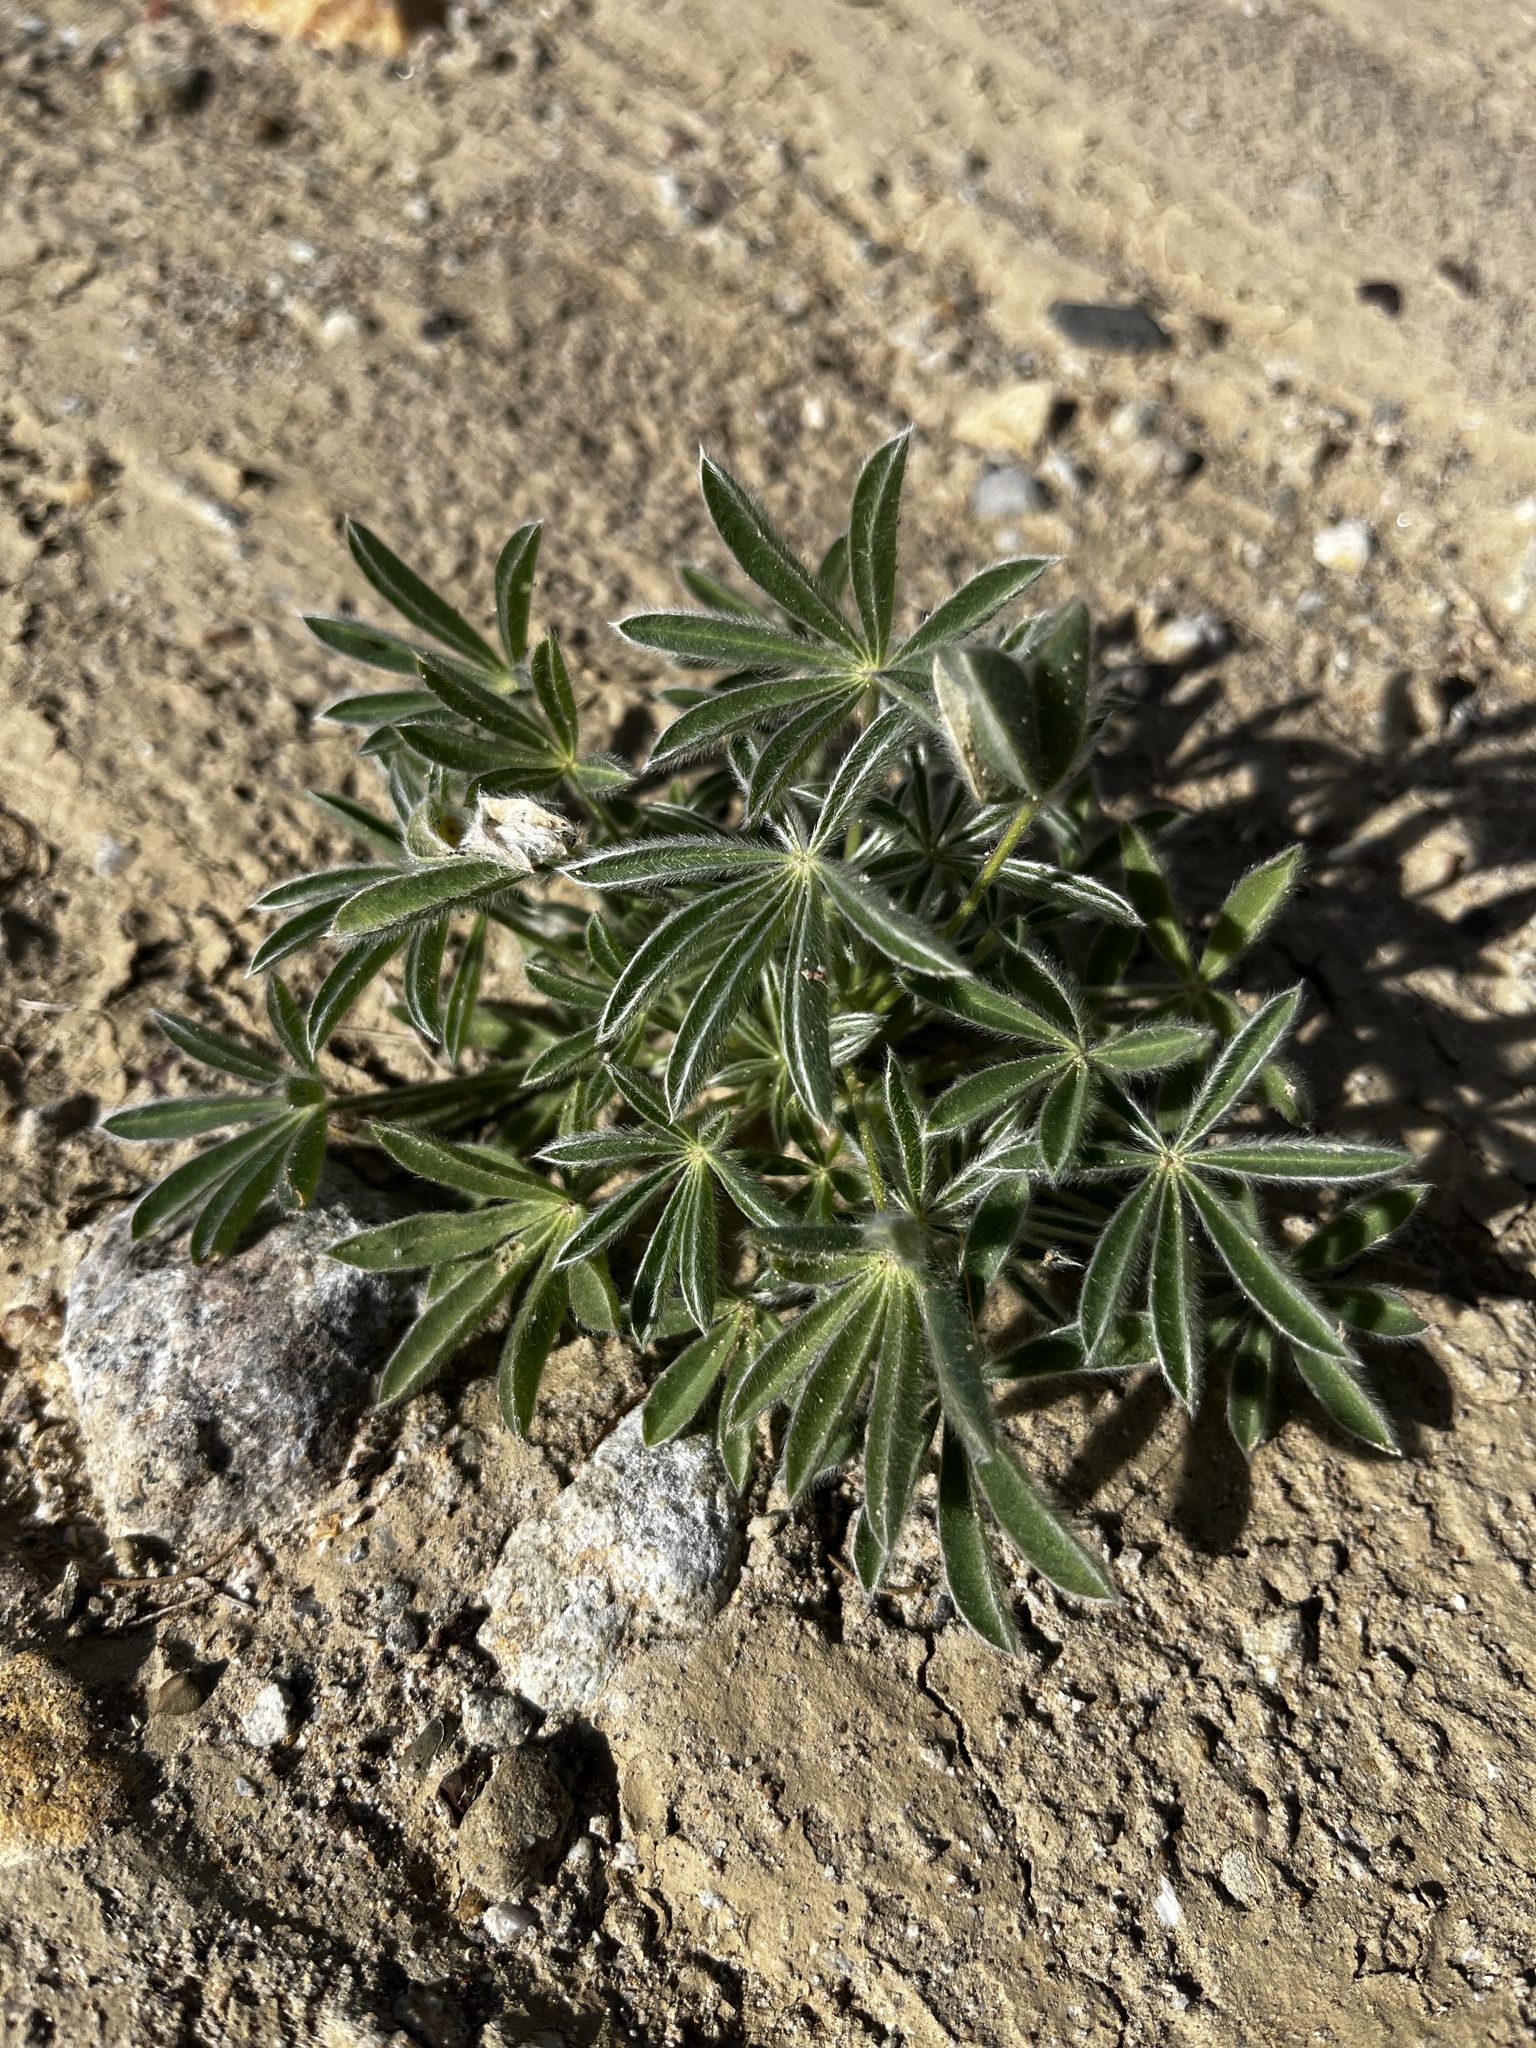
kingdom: Plantae
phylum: Tracheophyta
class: Magnoliopsida
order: Fabales
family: Fabaceae
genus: Lupinus
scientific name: Lupinus havardii
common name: Chisos bluebonnet
